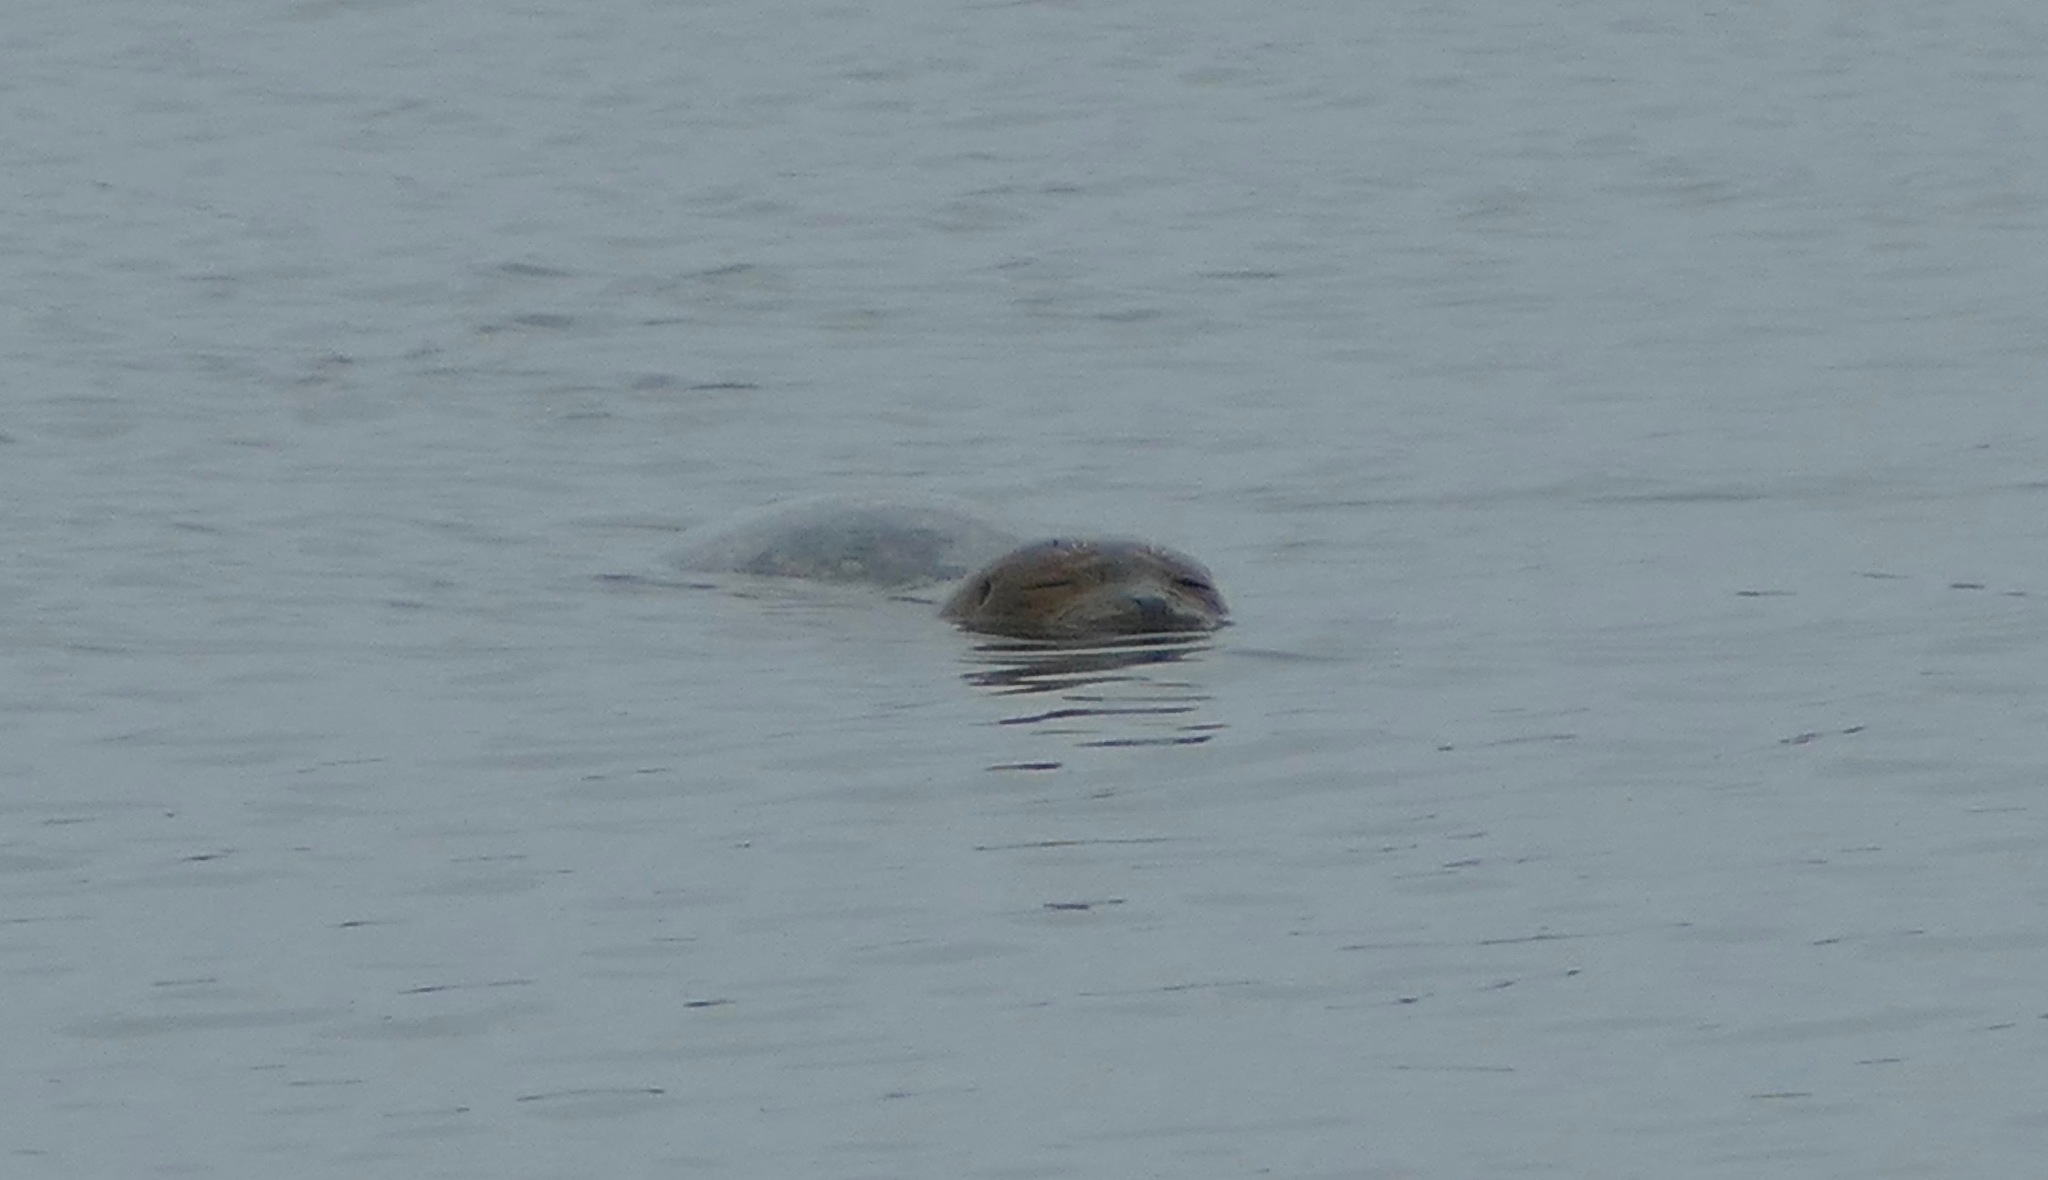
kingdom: Animalia
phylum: Chordata
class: Mammalia
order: Carnivora
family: Phocidae
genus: Phoca
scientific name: Phoca vitulina
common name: Harbor seal
